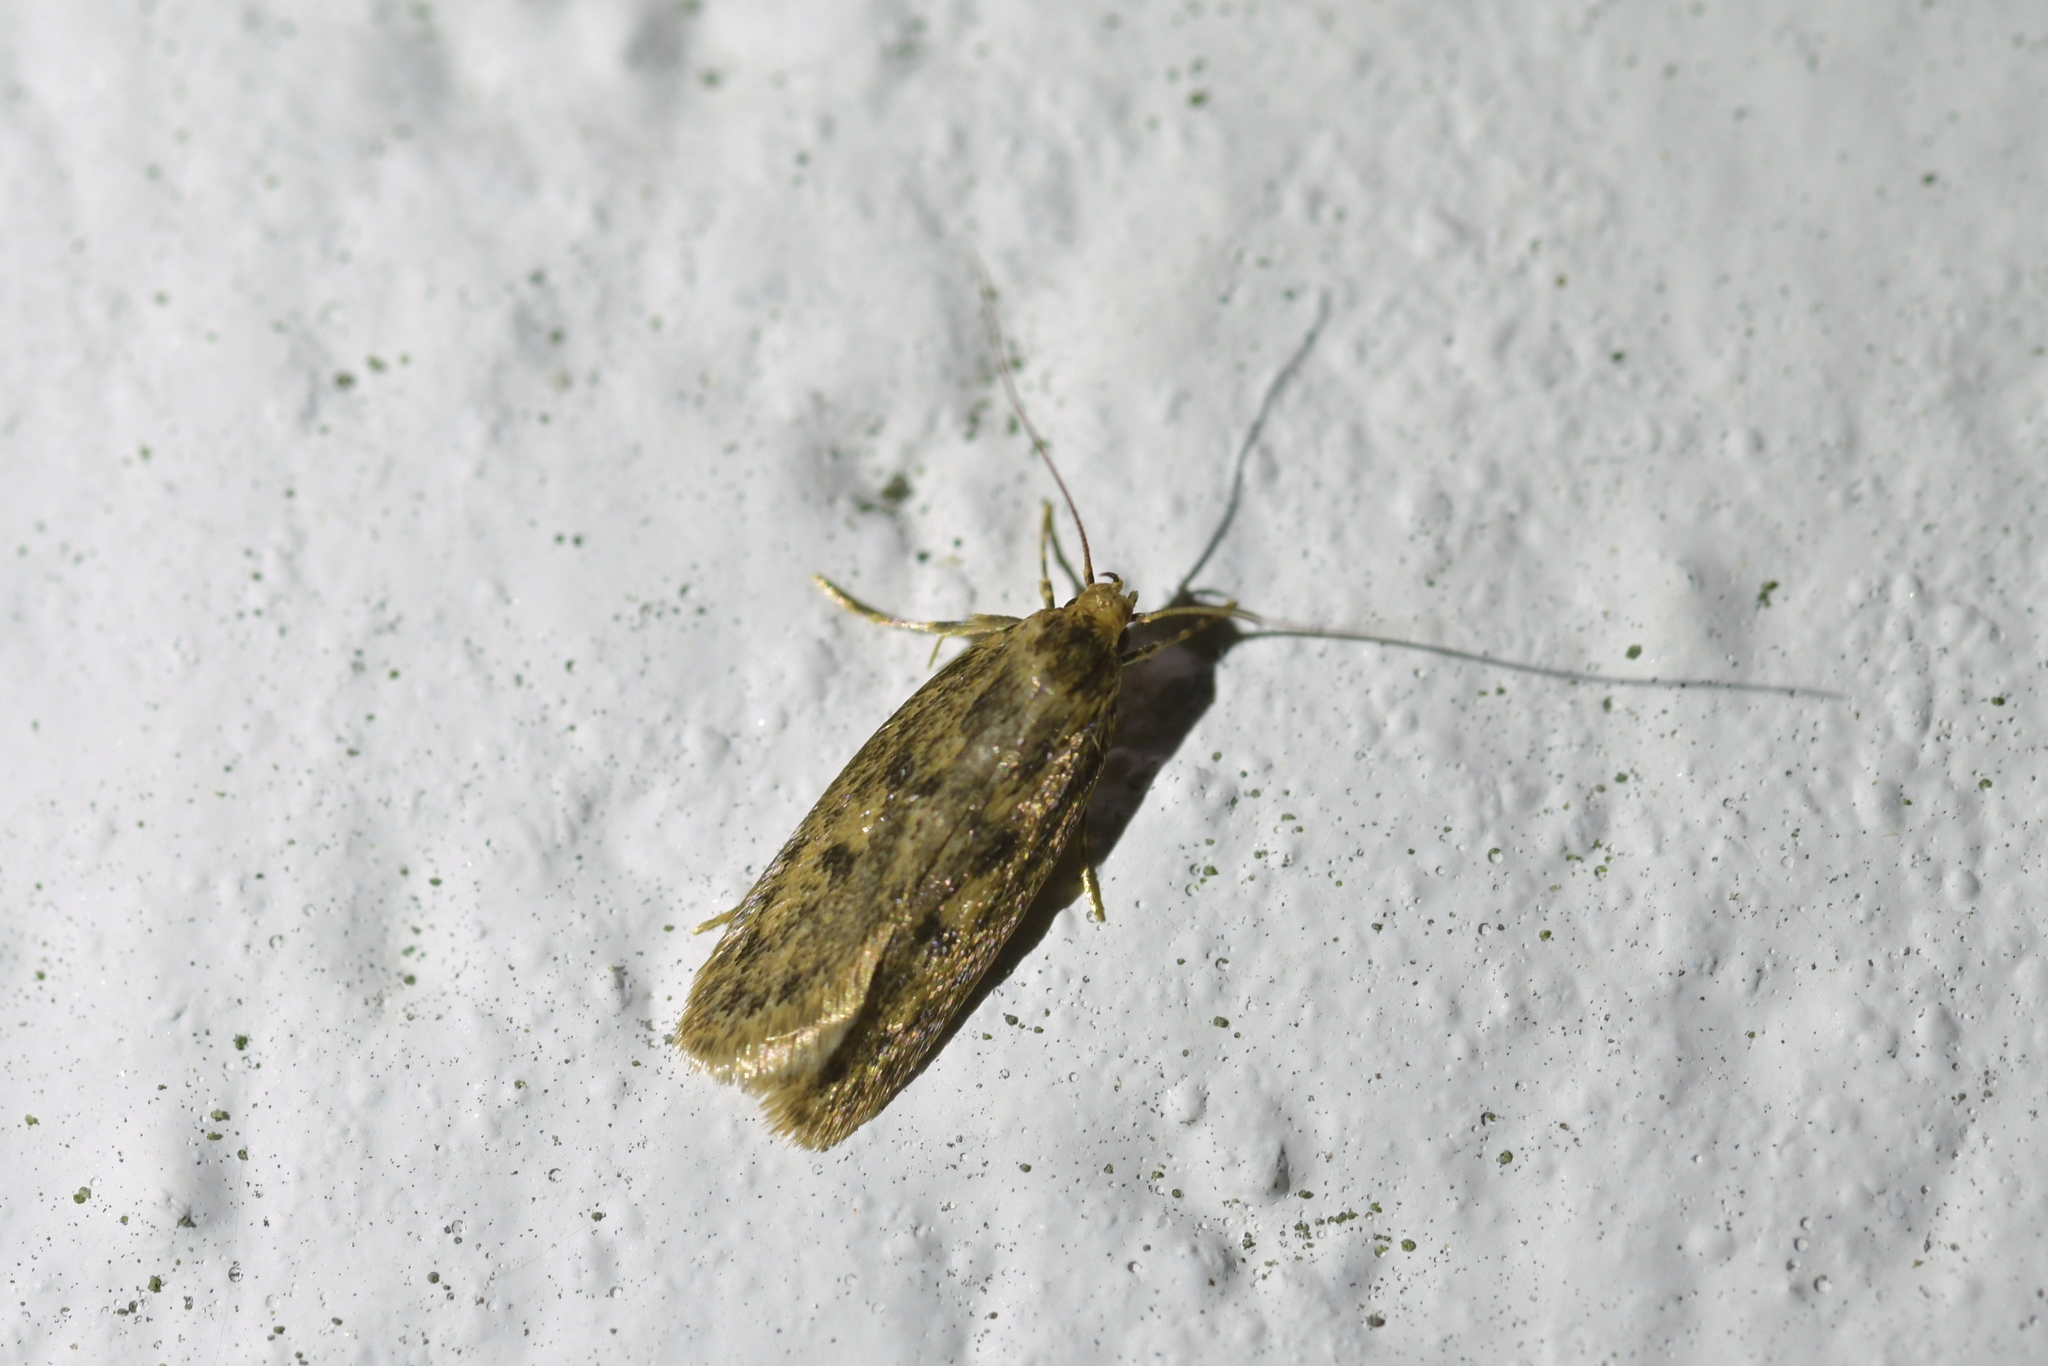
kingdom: Animalia
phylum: Arthropoda
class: Insecta
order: Lepidoptera
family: Oecophoridae
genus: Hofmannophila
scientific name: Hofmannophila pseudospretella
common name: Brown house moth
